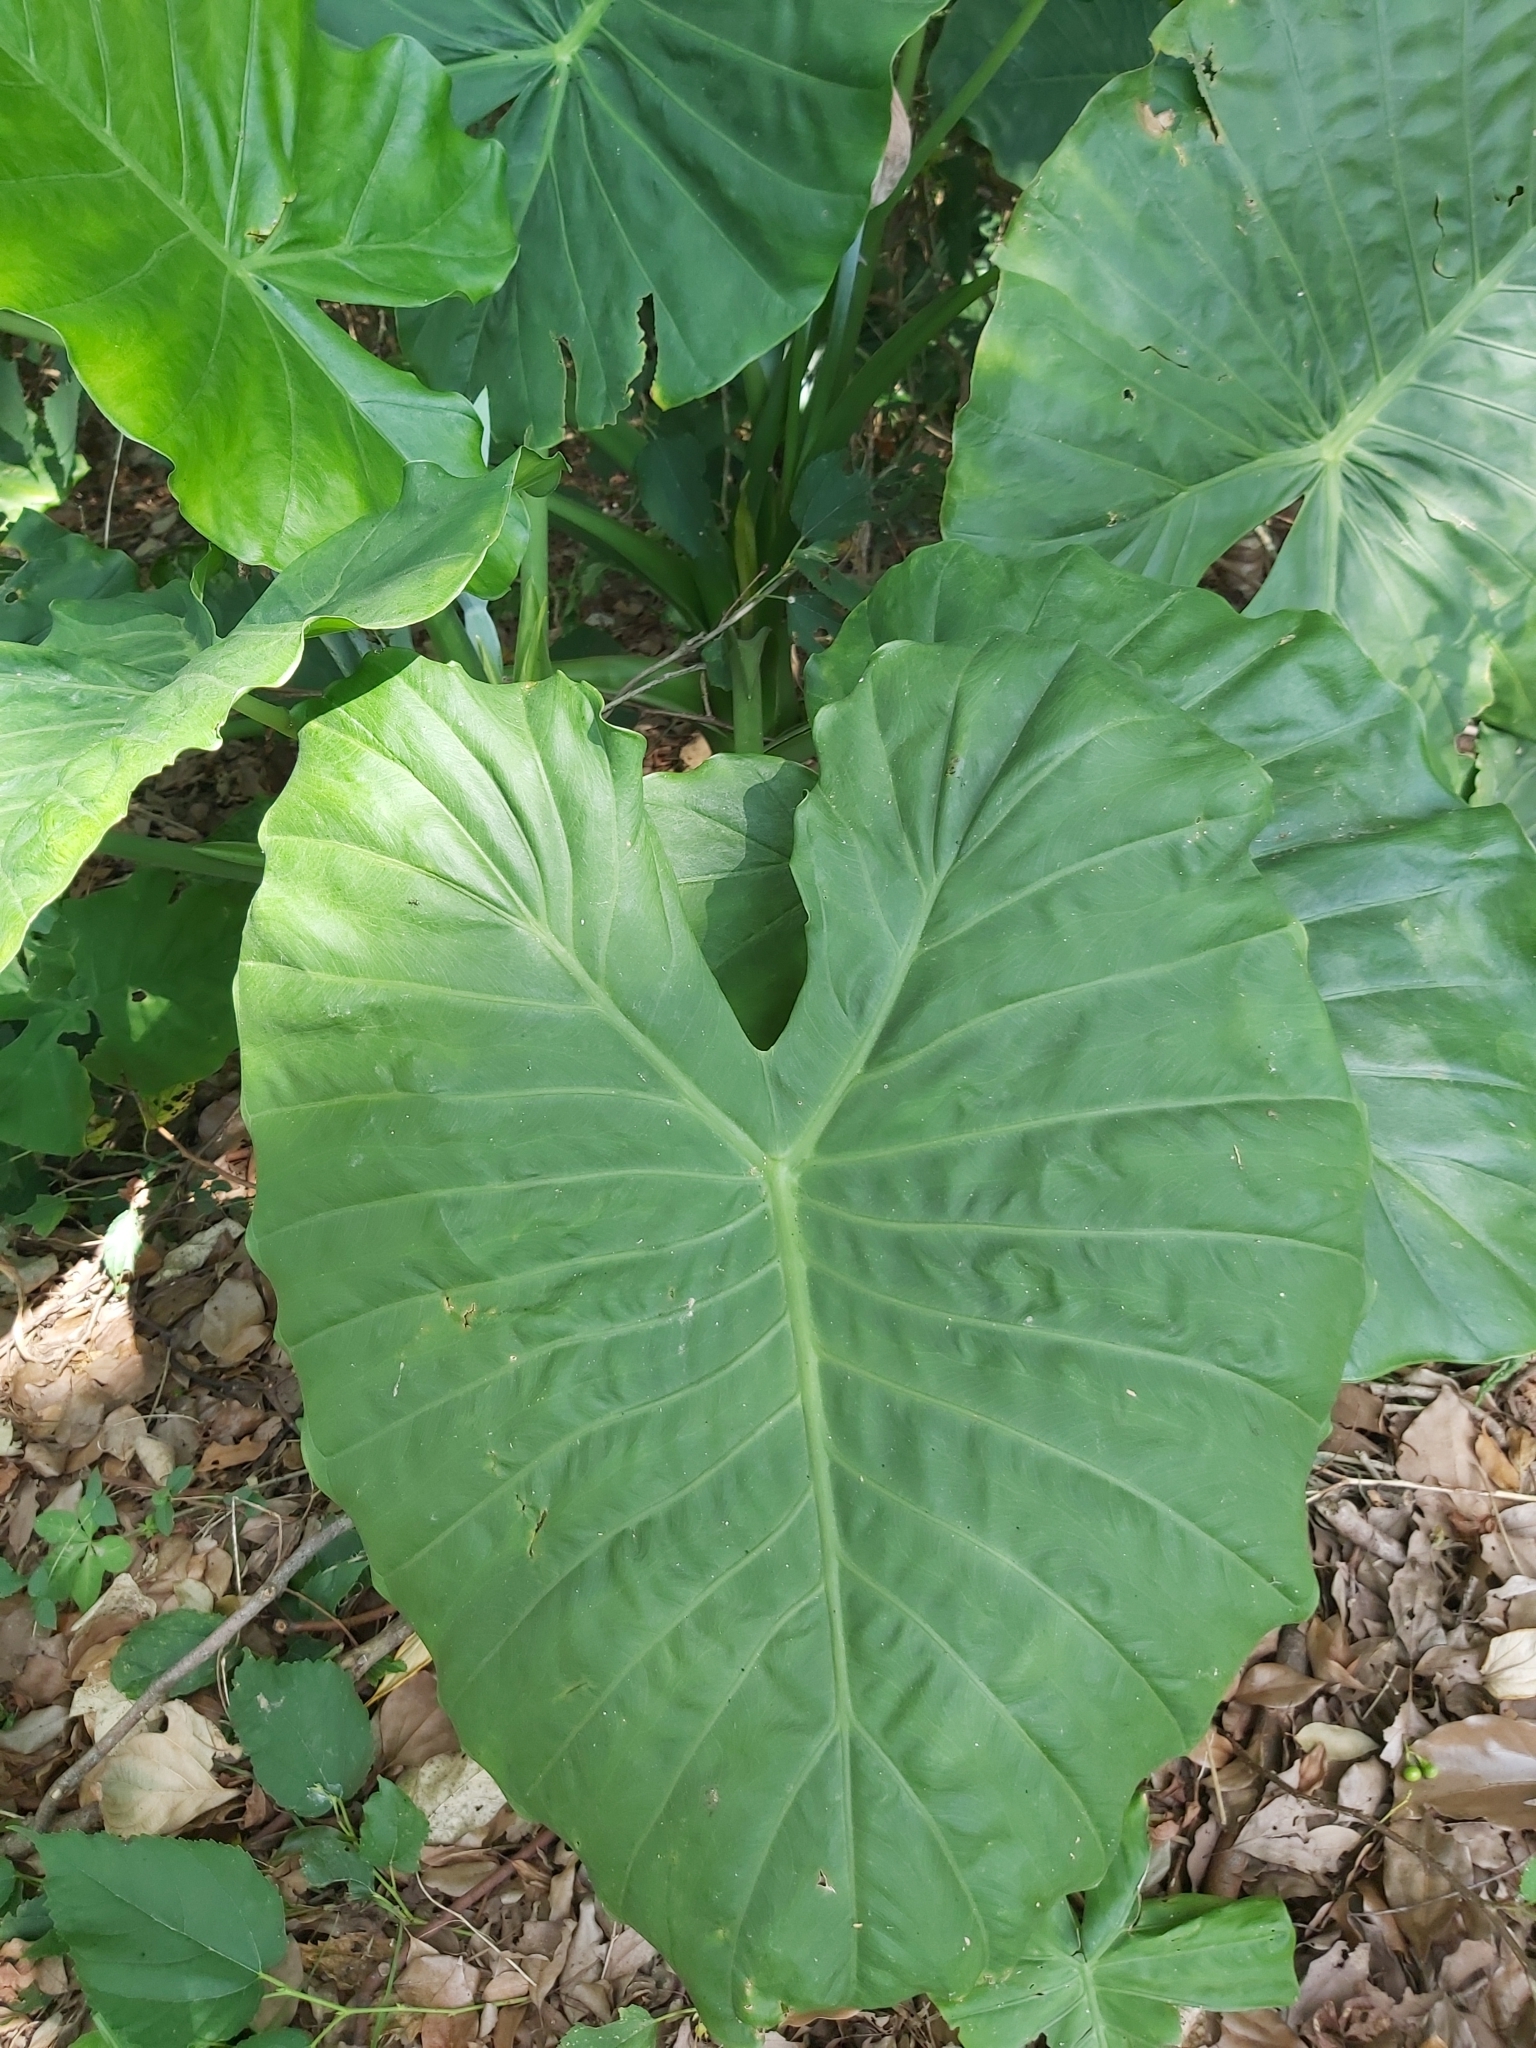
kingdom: Plantae
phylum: Tracheophyta
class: Liliopsida
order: Alismatales
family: Araceae
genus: Alocasia
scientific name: Alocasia odora
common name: Asian taro
